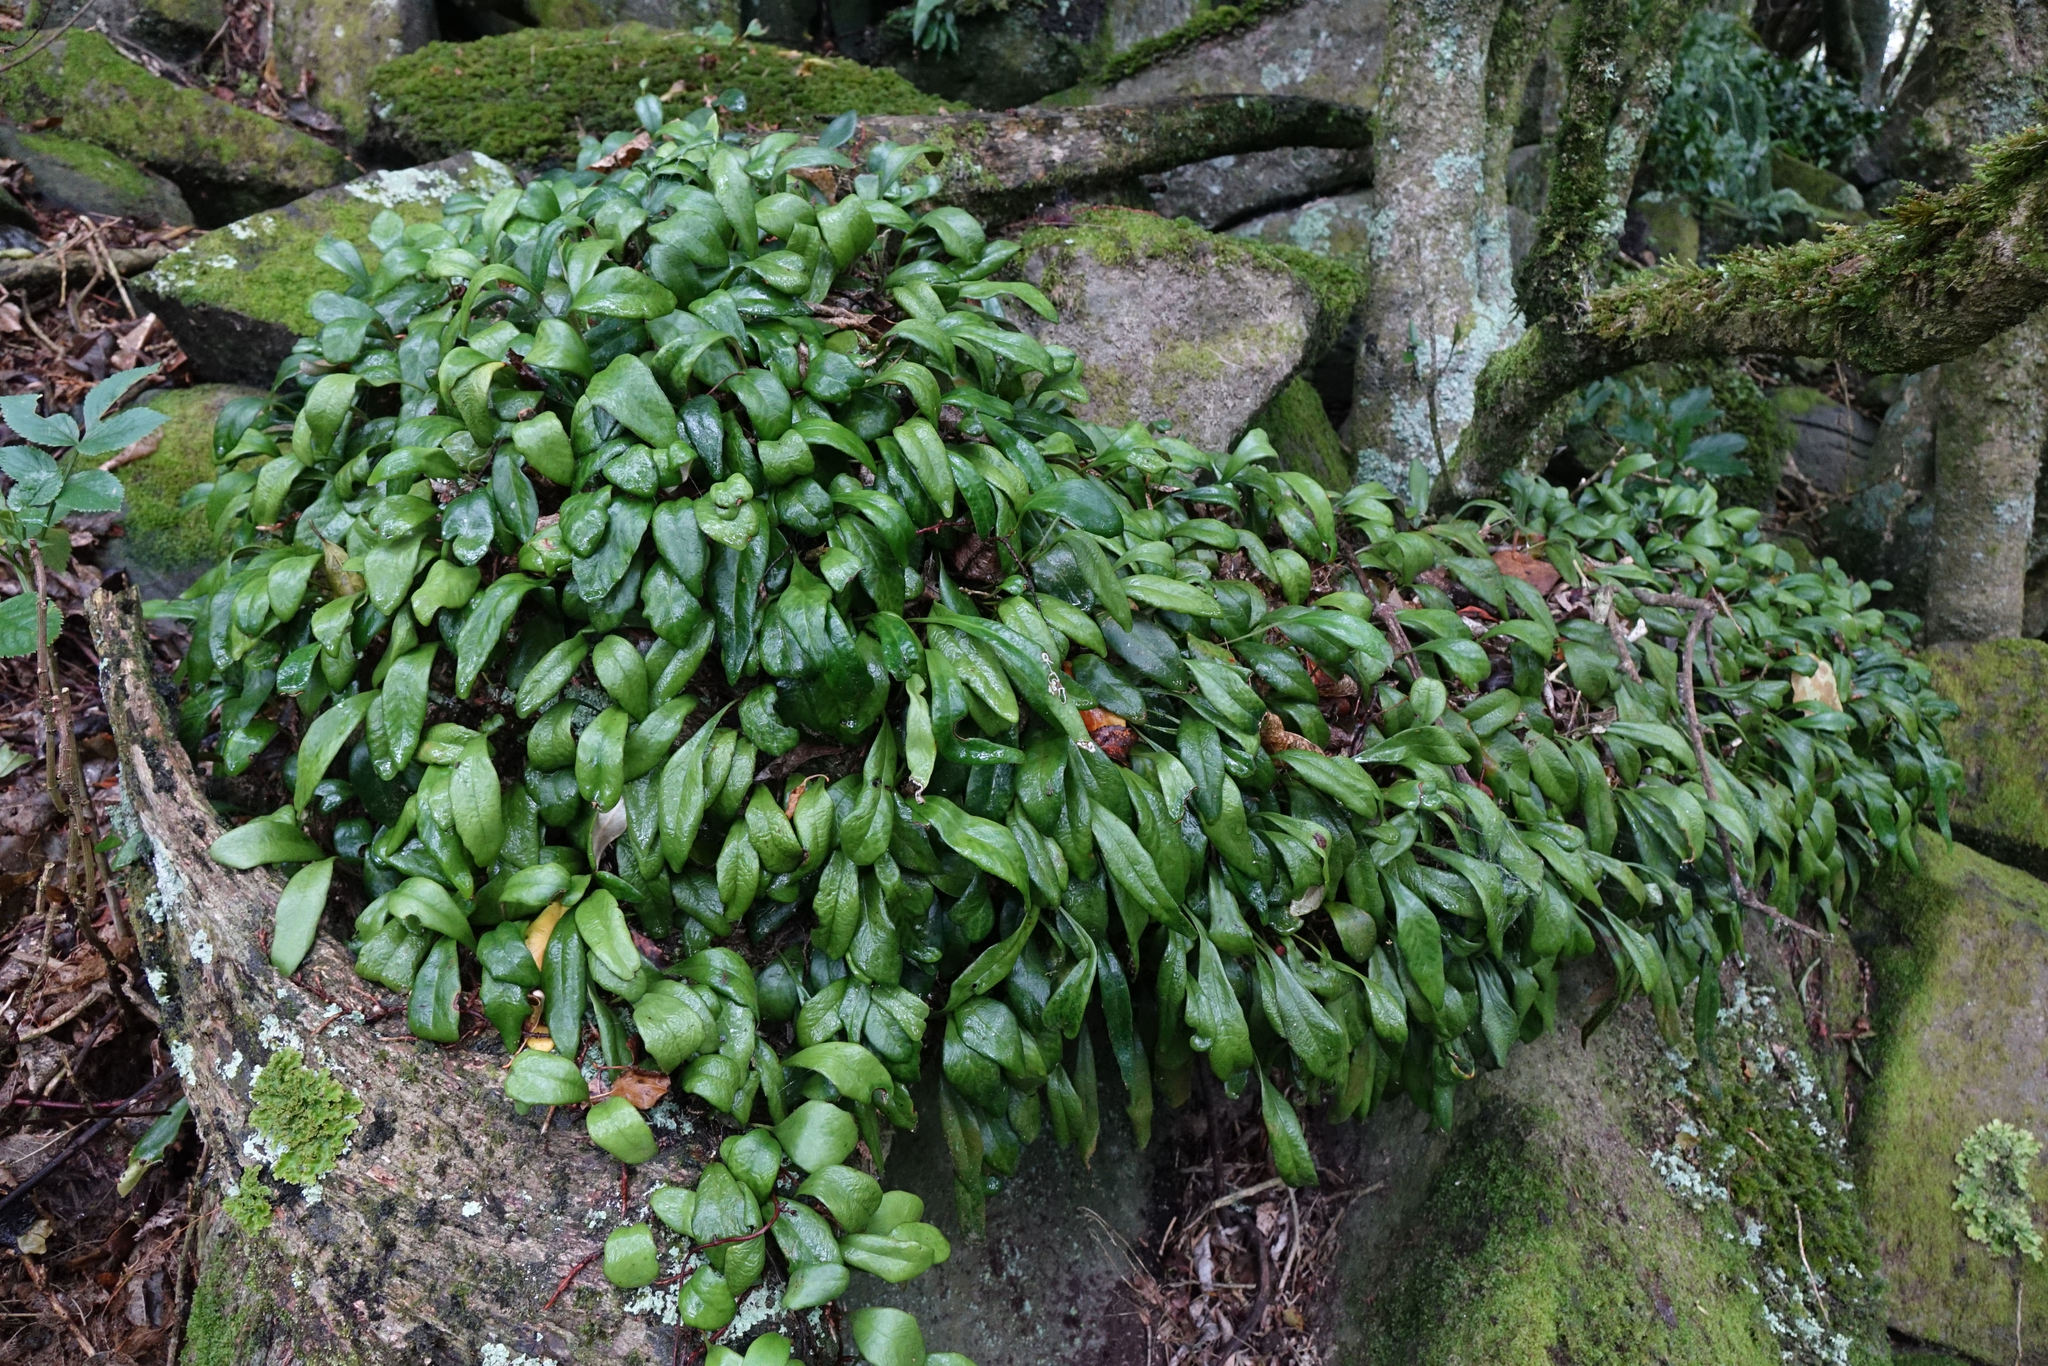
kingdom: Plantae
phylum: Tracheophyta
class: Polypodiopsida
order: Polypodiales
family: Polypodiaceae
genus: Pyrrosia
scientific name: Pyrrosia eleagnifolia
